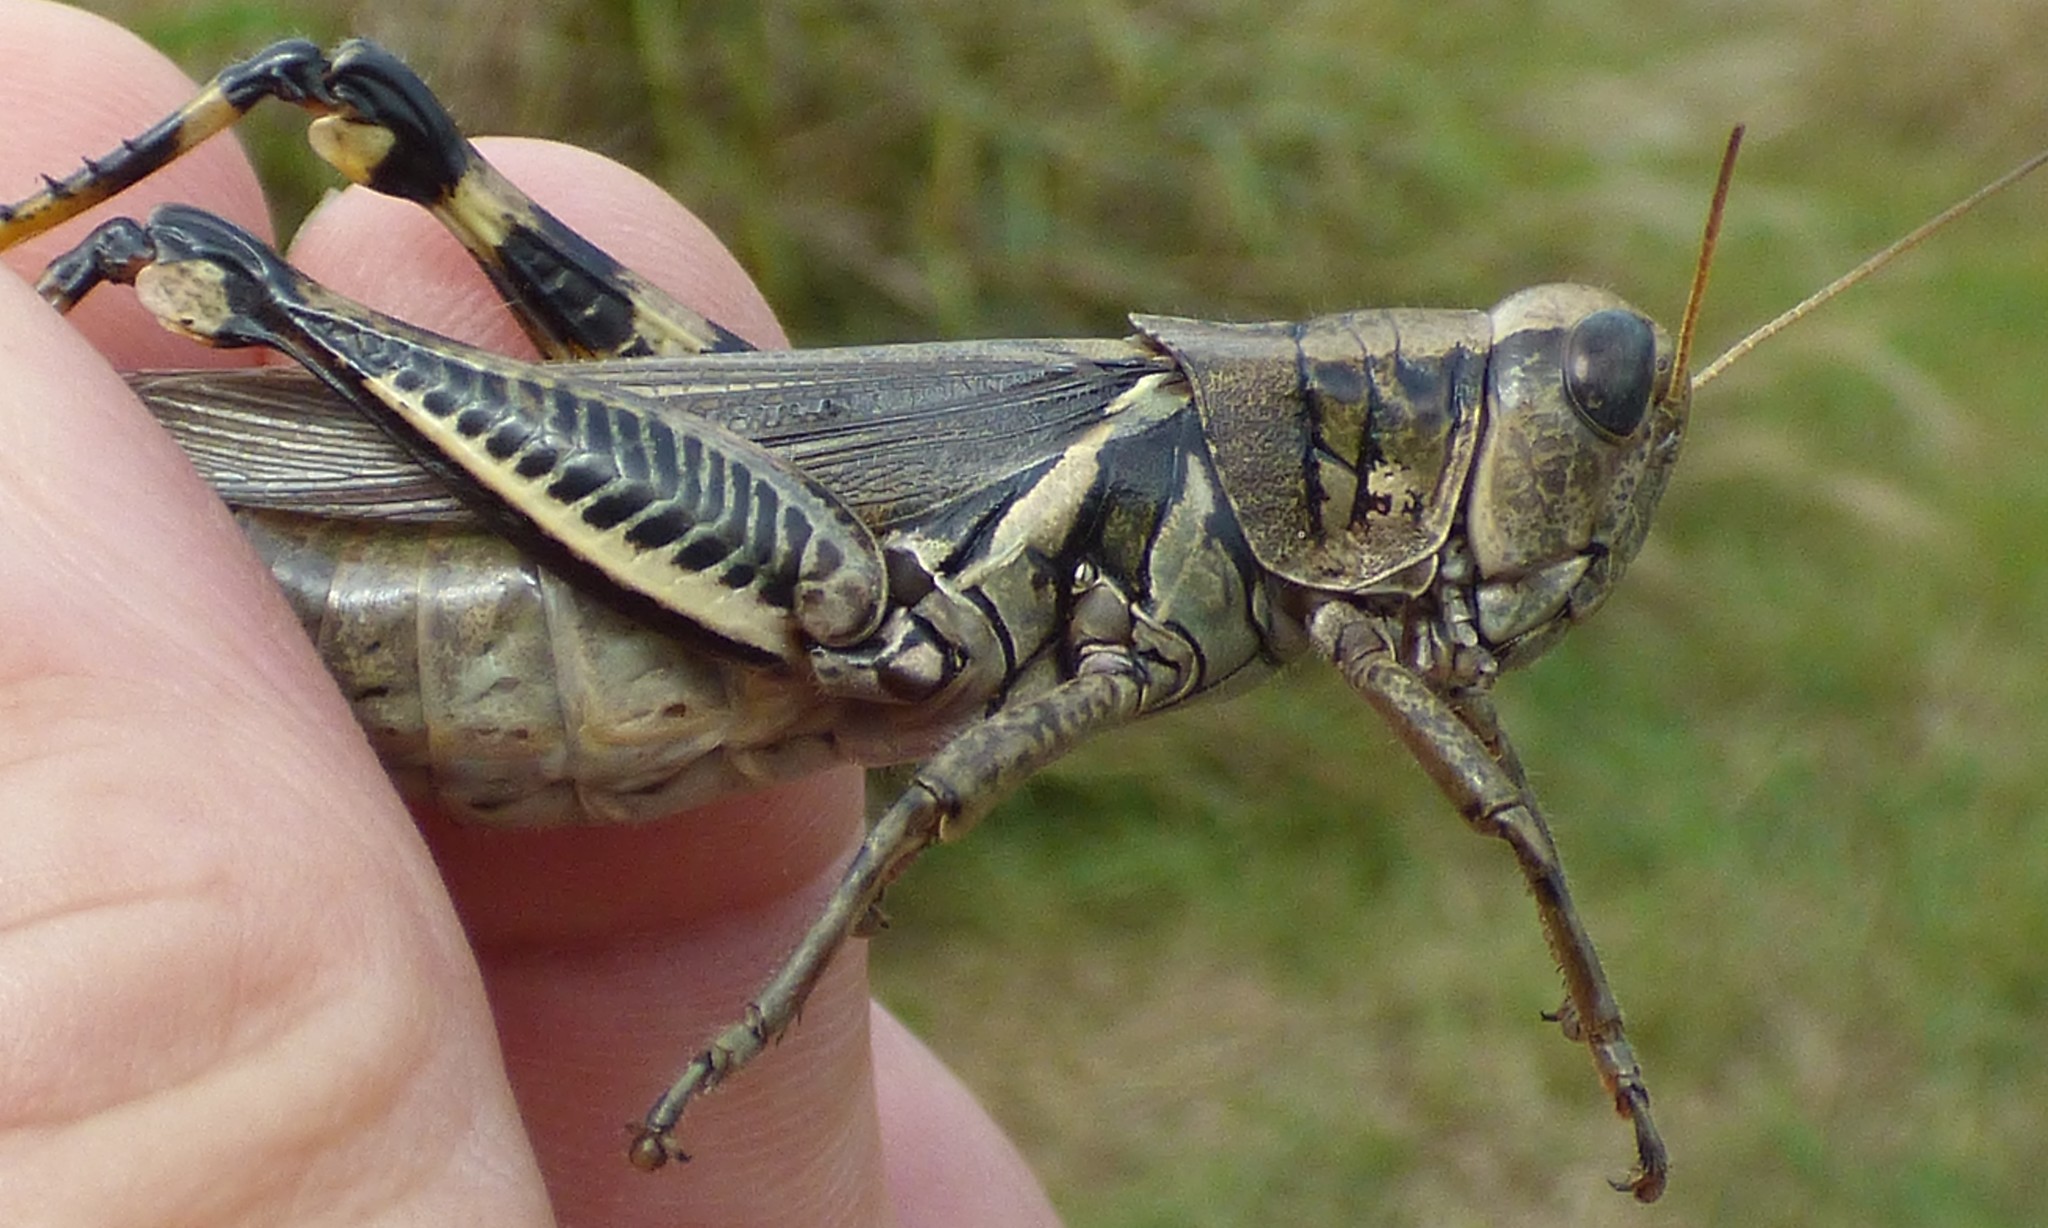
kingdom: Animalia
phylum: Arthropoda
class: Insecta
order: Orthoptera
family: Acrididae
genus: Melanoplus
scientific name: Melanoplus differentialis
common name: Differential grasshopper
